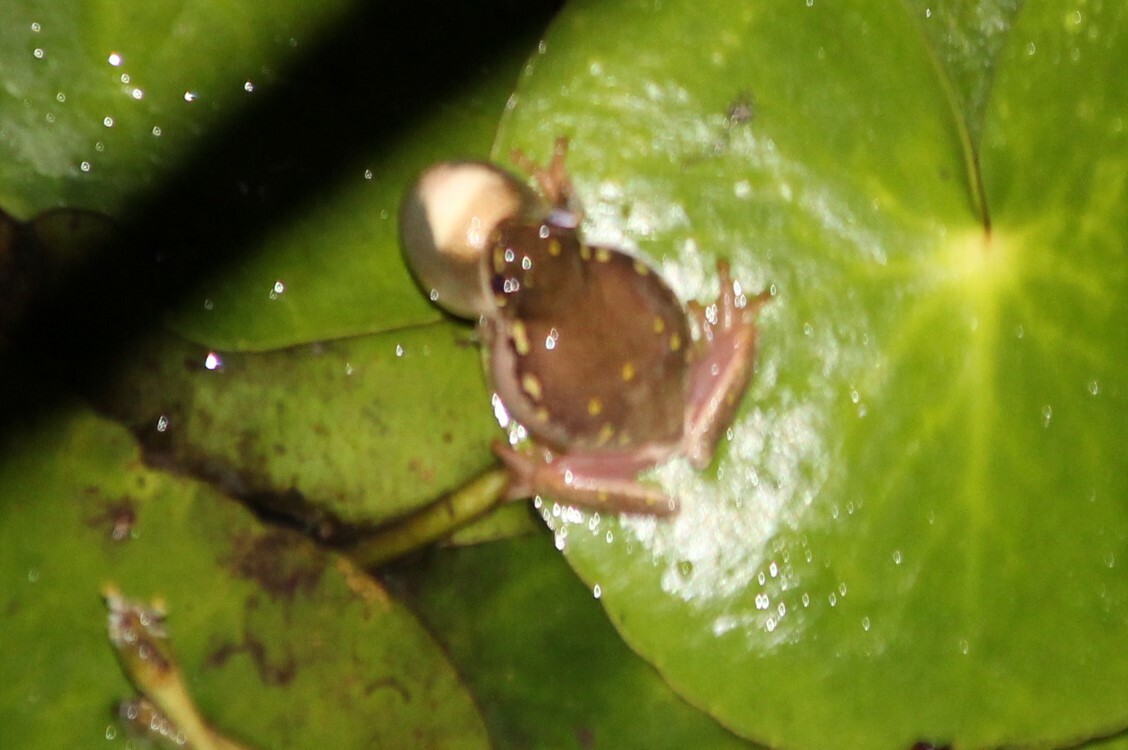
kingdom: Animalia
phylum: Chordata
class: Amphibia
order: Anura
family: Hyperoliidae
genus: Hyperolius
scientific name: Hyperolius marmoratus
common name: Painted reed frog
